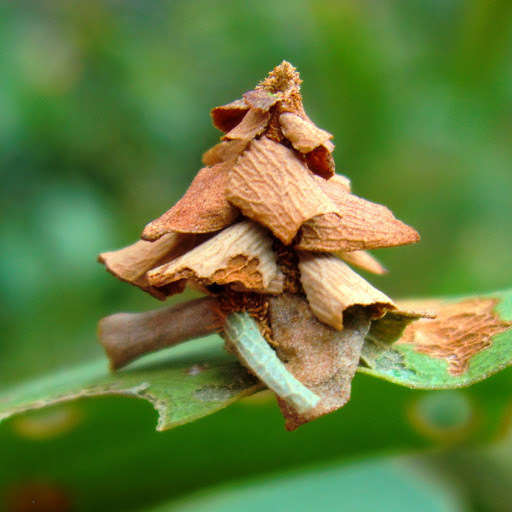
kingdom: Animalia
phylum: Arthropoda
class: Insecta
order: Lepidoptera
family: Psychidae
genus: Hyalarcta
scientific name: Hyalarcta huebneri
